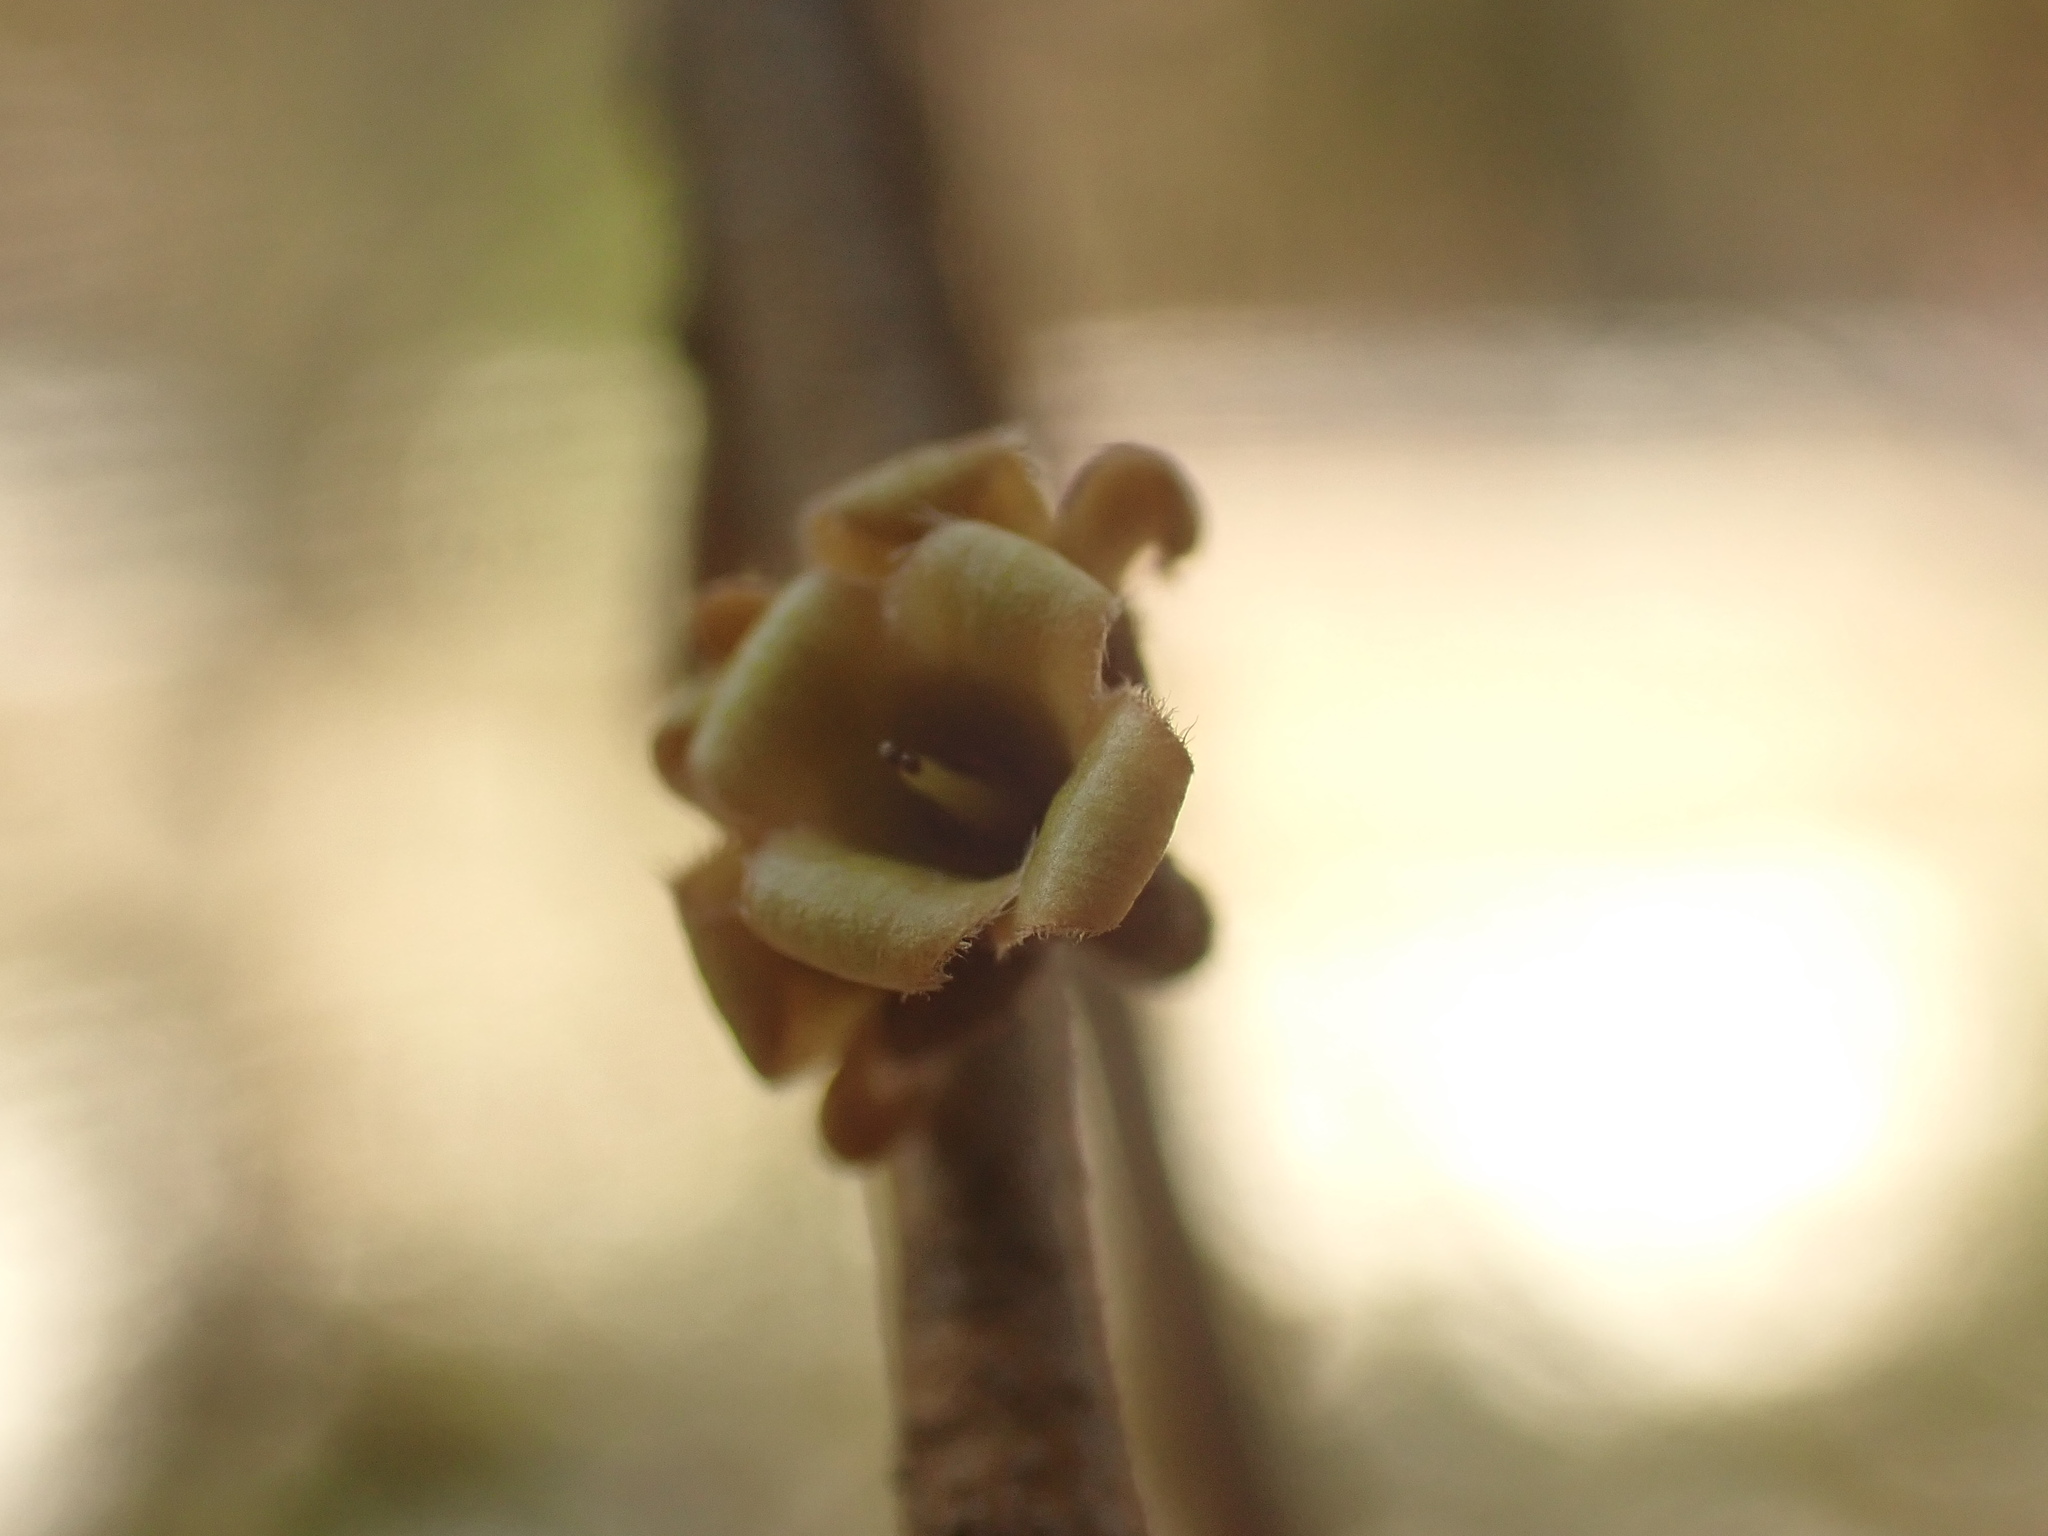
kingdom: Plantae
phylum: Tracheophyta
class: Magnoliopsida
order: Saxifragales
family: Hamamelidaceae
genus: Hamamelis
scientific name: Hamamelis virginiana
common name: Witch-hazel
